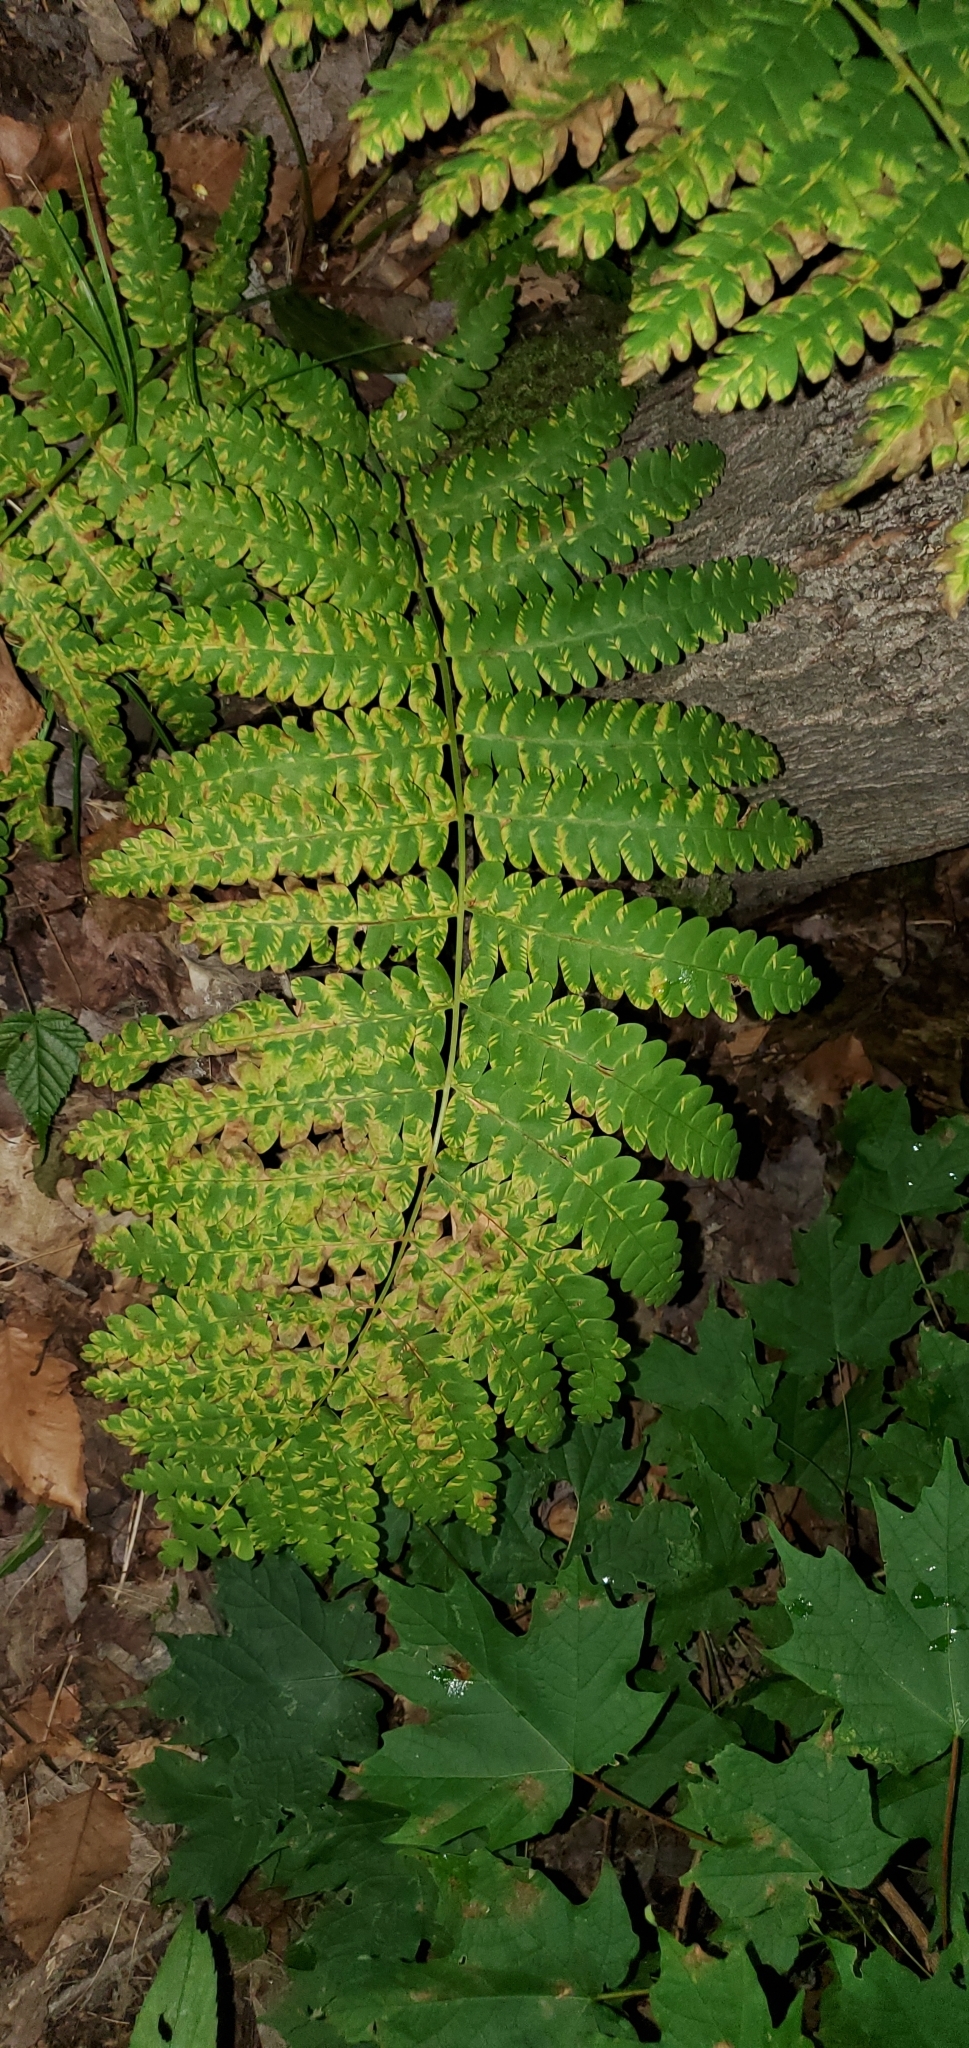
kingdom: Plantae
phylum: Tracheophyta
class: Polypodiopsida
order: Osmundales
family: Osmundaceae
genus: Claytosmunda
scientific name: Claytosmunda claytoniana
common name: Clayton's fern
